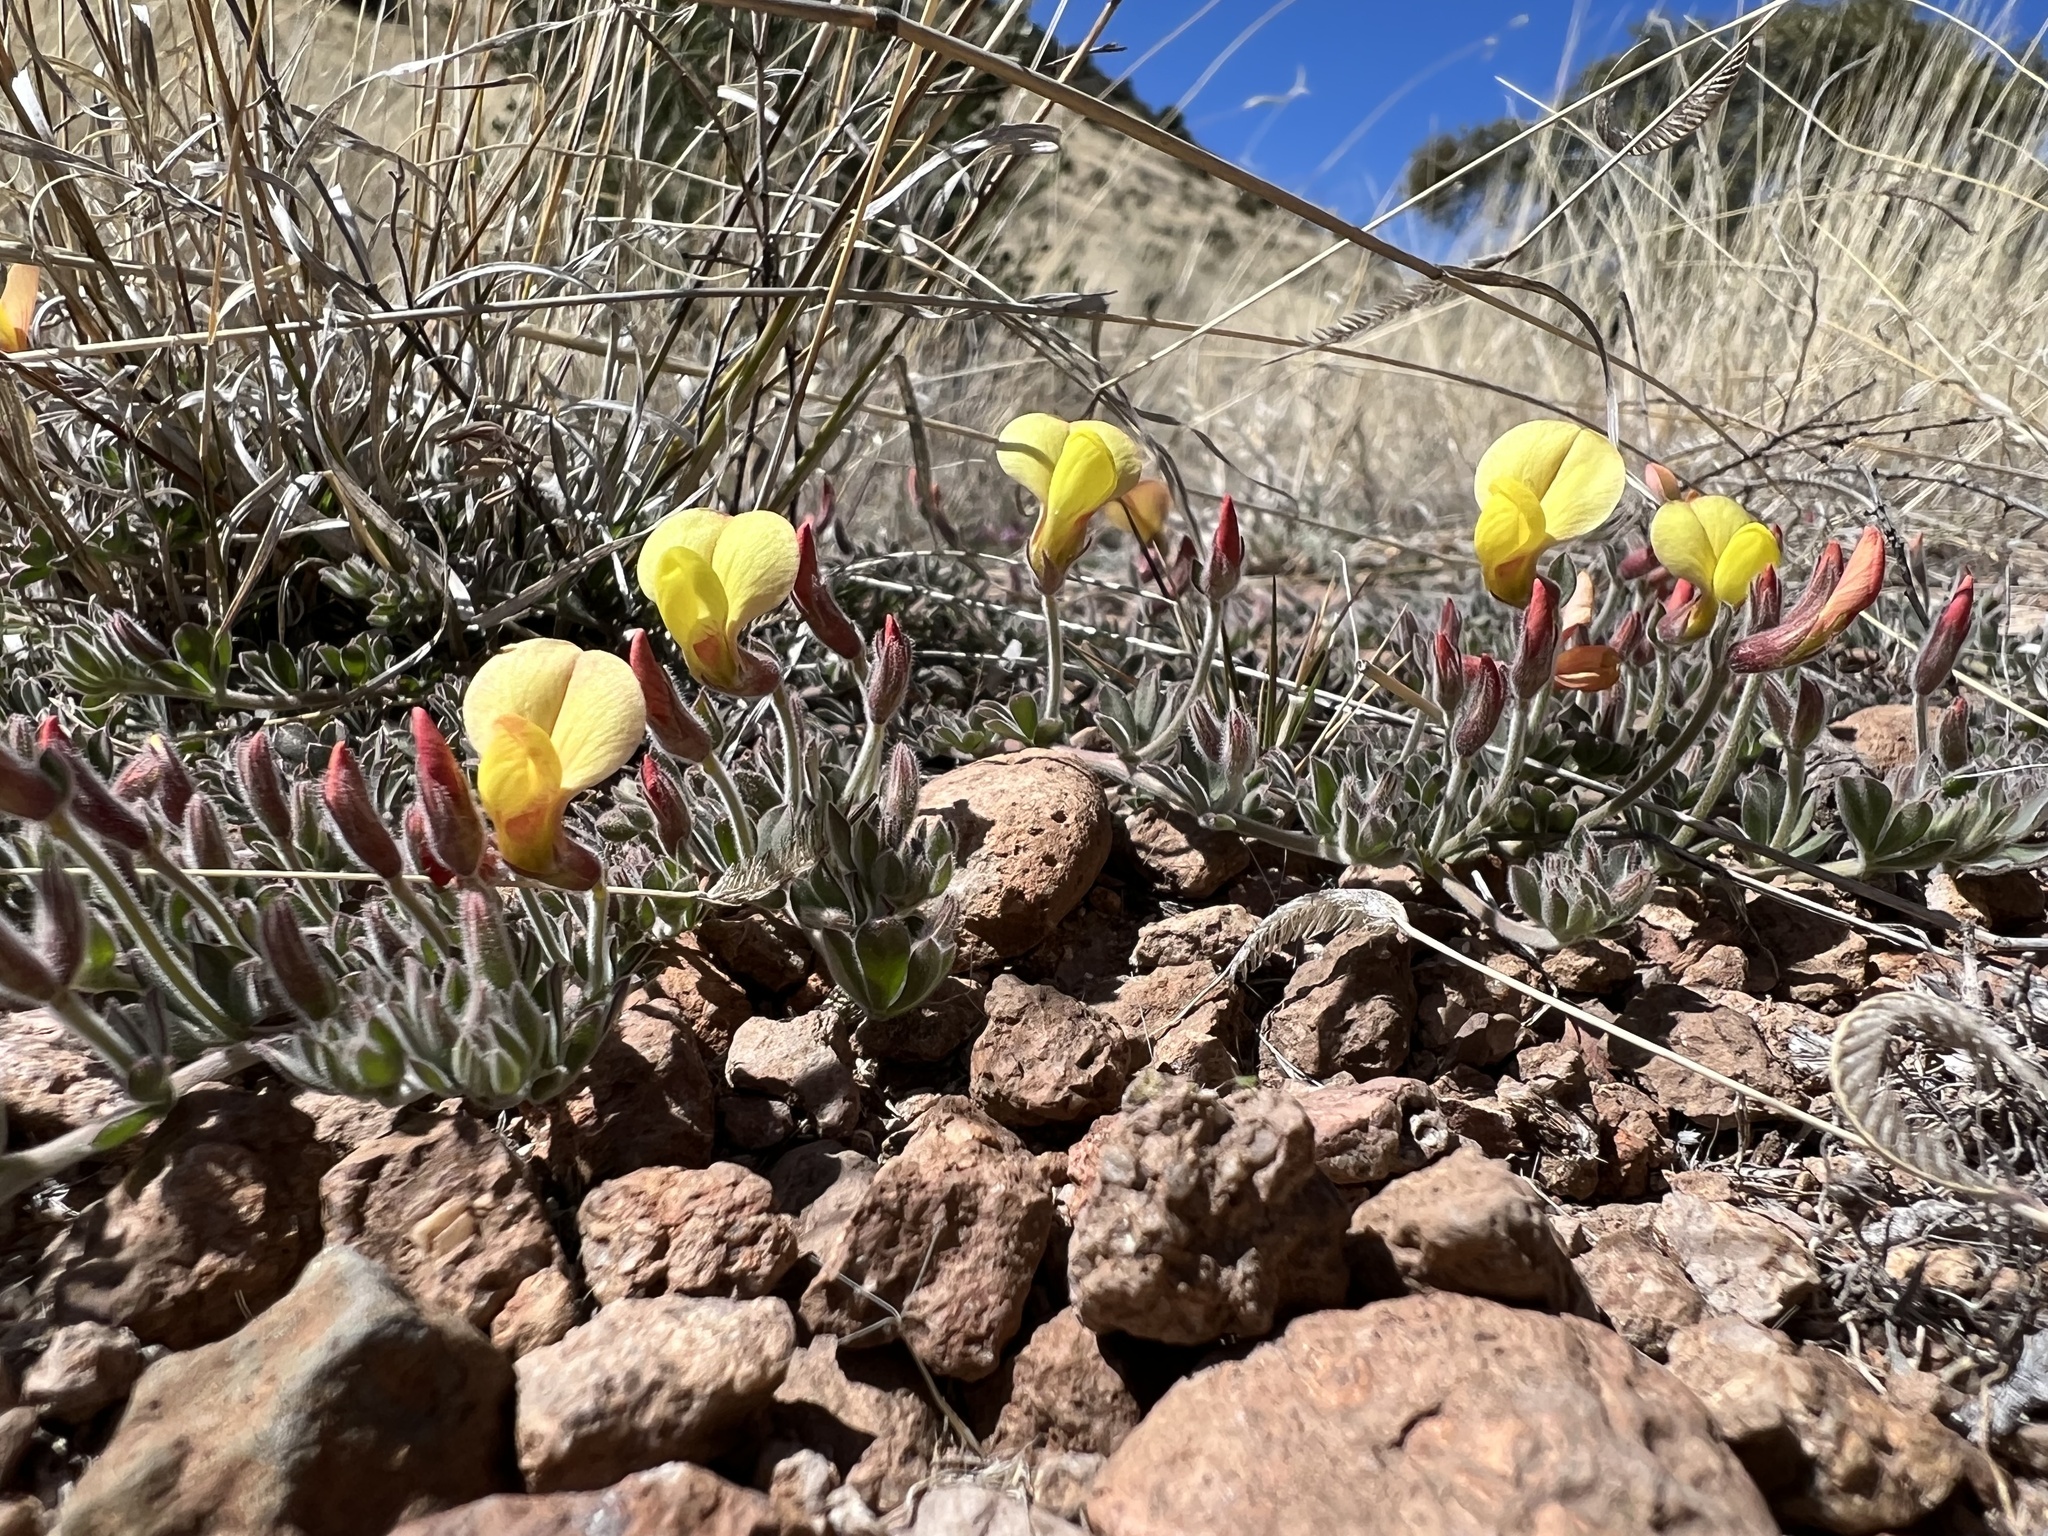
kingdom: Plantae
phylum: Tracheophyta
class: Magnoliopsida
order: Fabales
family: Fabaceae
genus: Acmispon
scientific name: Acmispon neomexicanus
